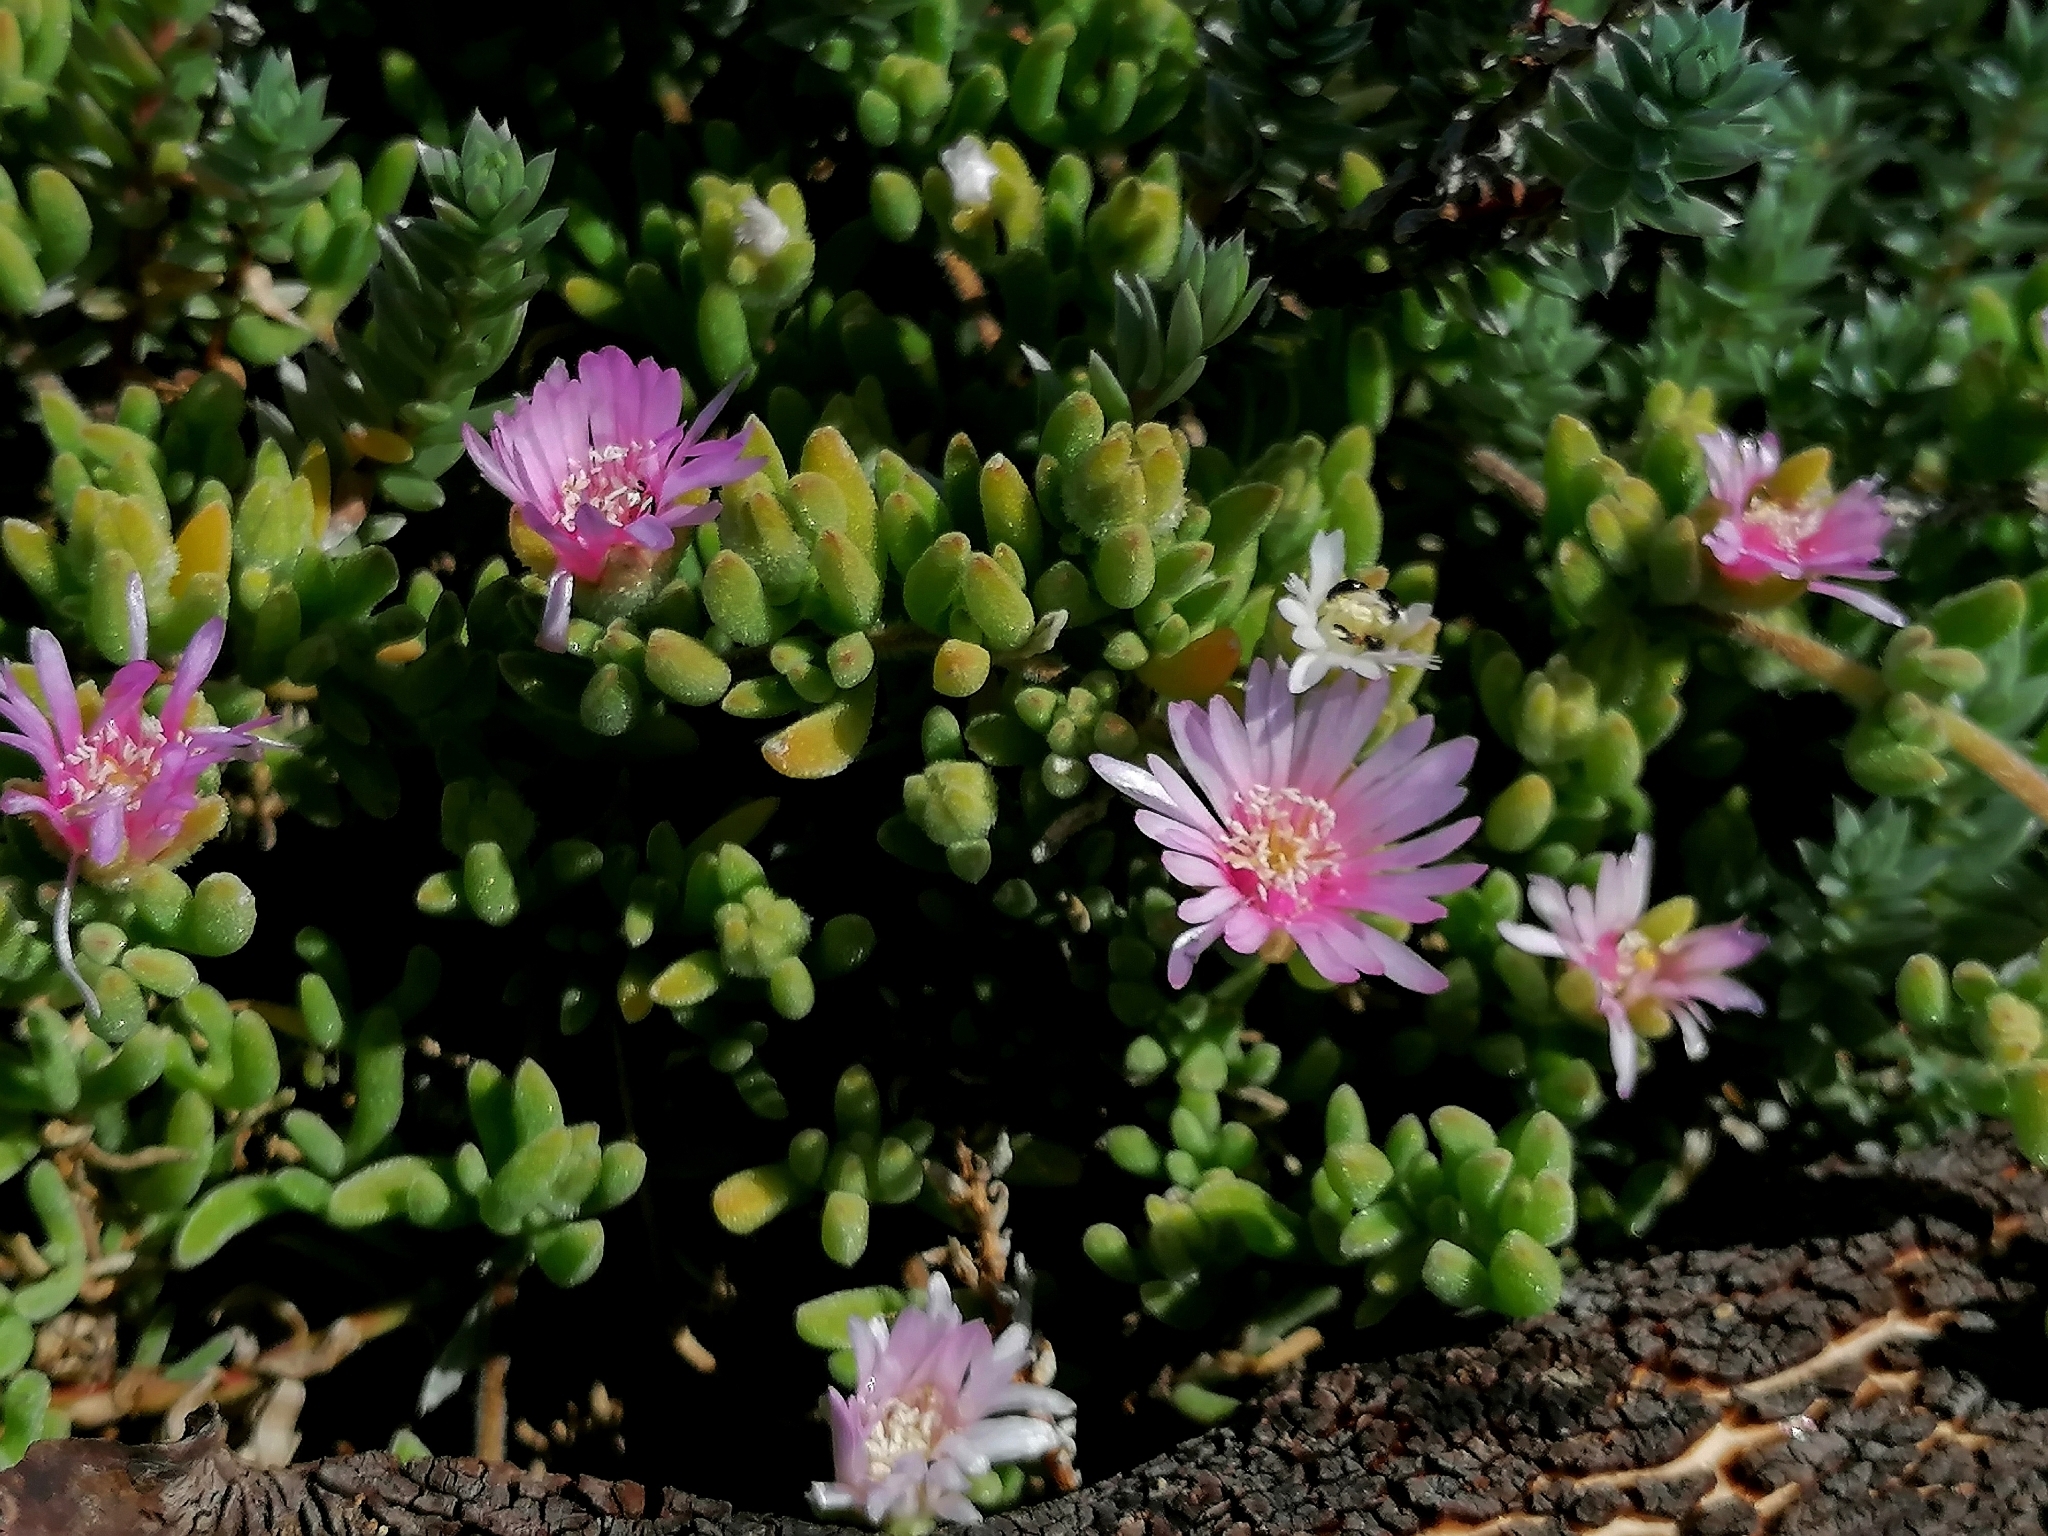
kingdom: Plantae
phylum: Tracheophyta
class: Magnoliopsida
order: Caryophyllales
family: Aizoaceae
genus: Drosanthemum
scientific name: Drosanthemum floribundum
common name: Pale dewplant
